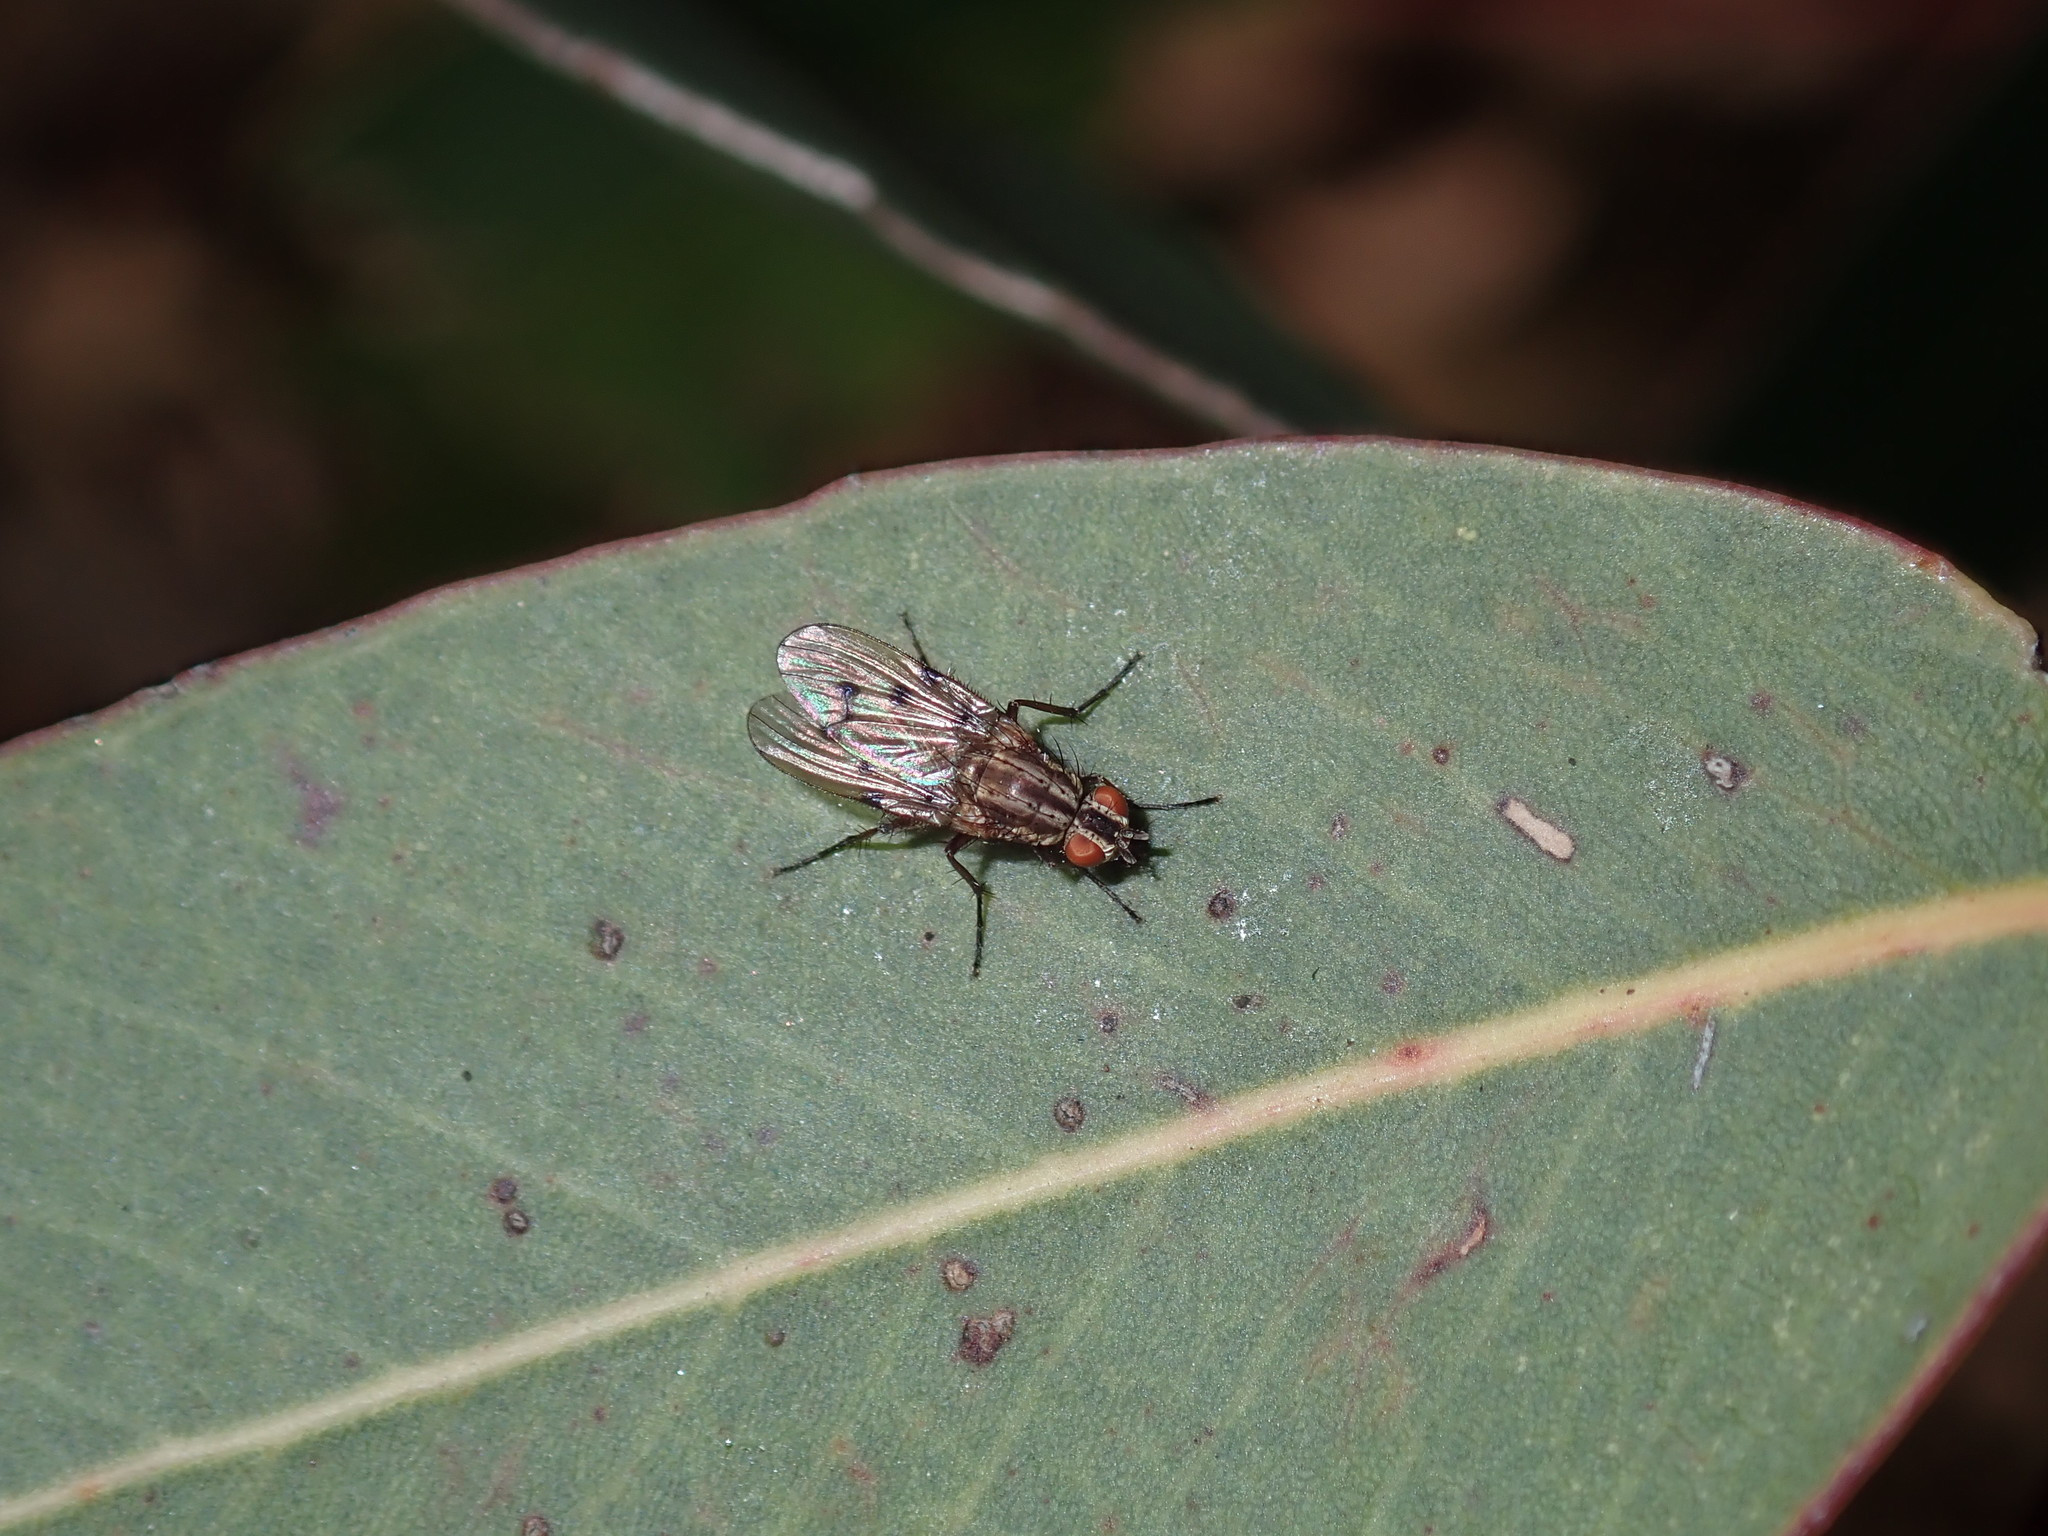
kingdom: Animalia
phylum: Arthropoda
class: Insecta
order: Diptera
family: Anthomyiidae
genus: Anthomyia
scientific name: Anthomyia punctipennis
